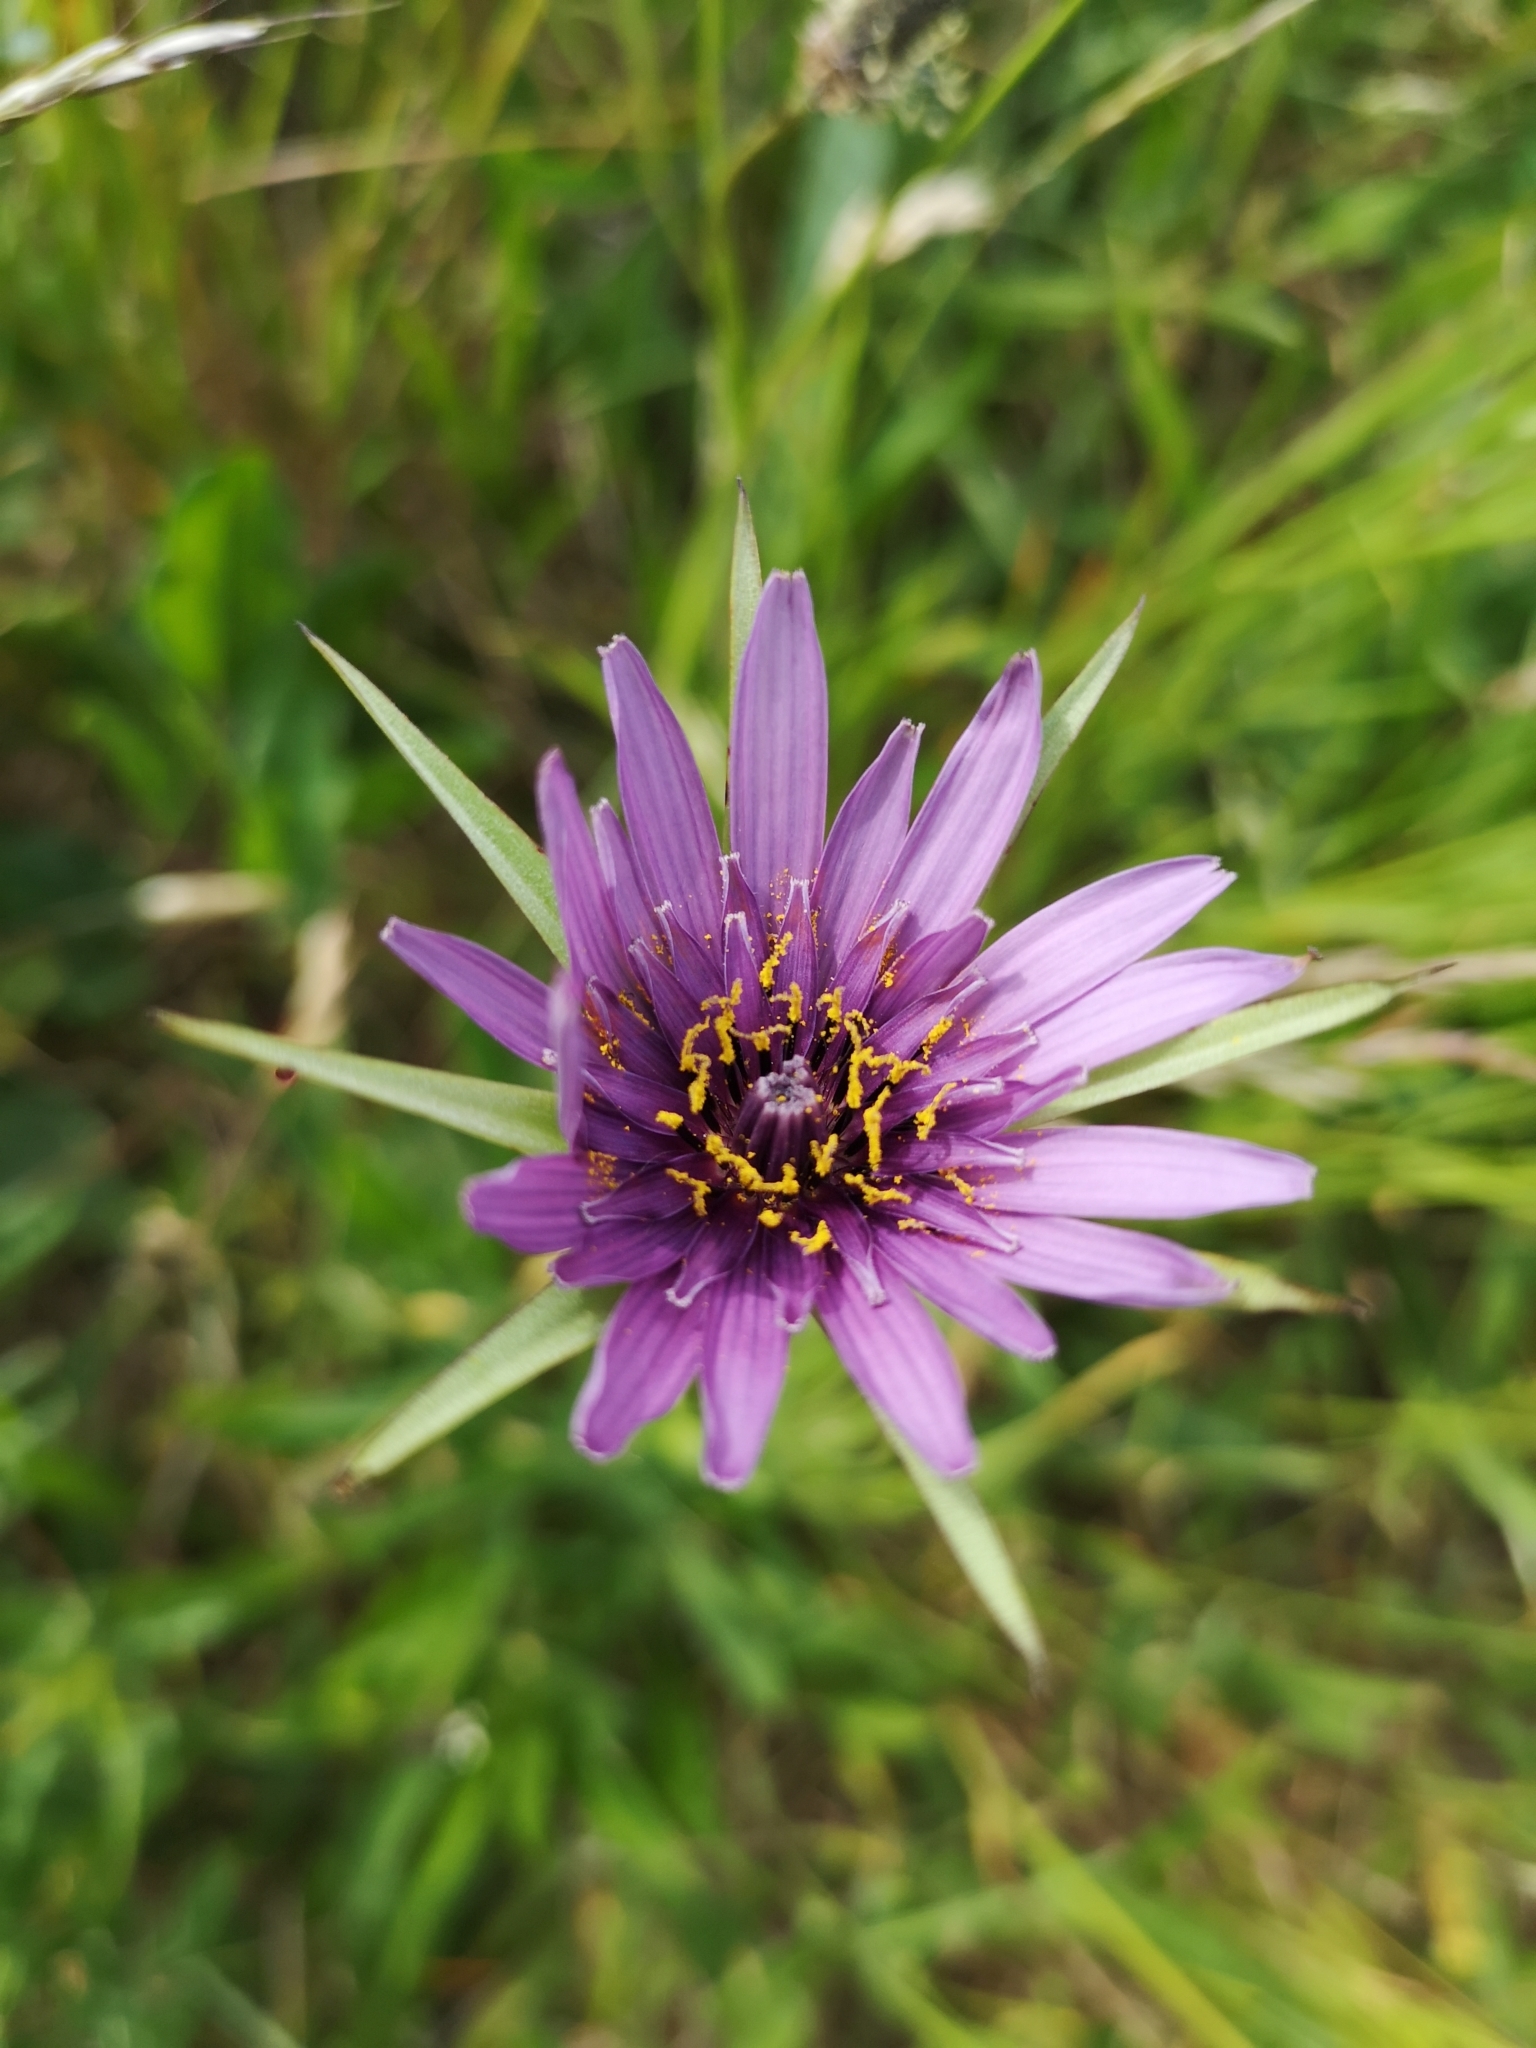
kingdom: Plantae
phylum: Tracheophyta
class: Magnoliopsida
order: Asterales
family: Asteraceae
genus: Tragopogon
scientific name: Tragopogon porrifolius
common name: Salsify
